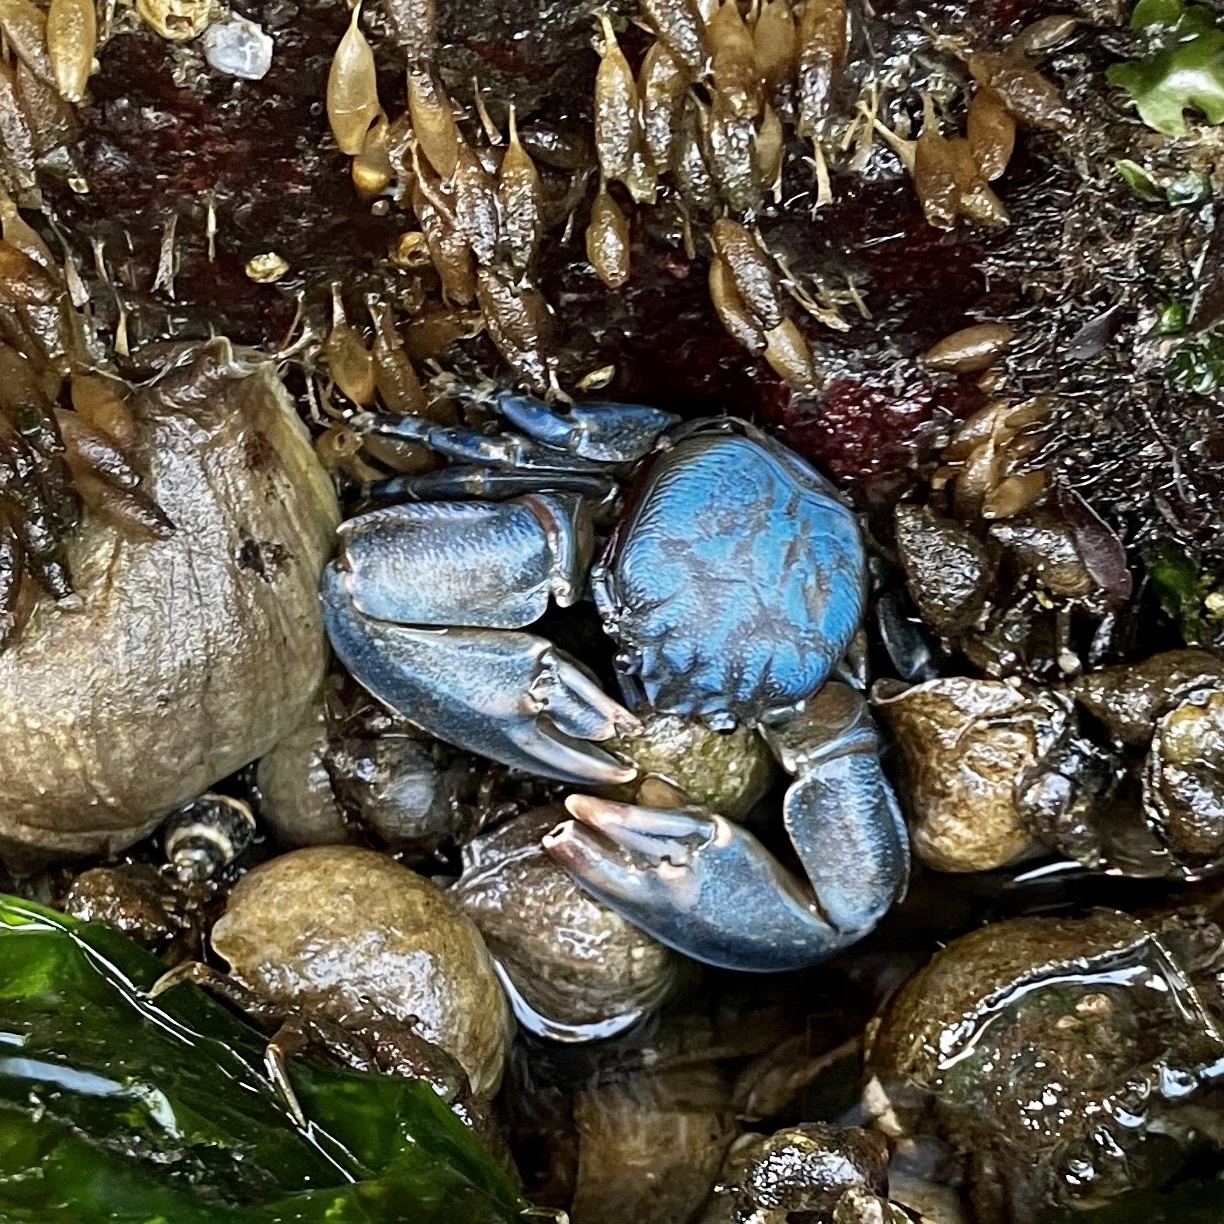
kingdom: Animalia
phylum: Arthropoda
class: Malacostraca
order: Decapoda
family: Porcellanidae
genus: Petrolisthes
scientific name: Petrolisthes cinctipes
